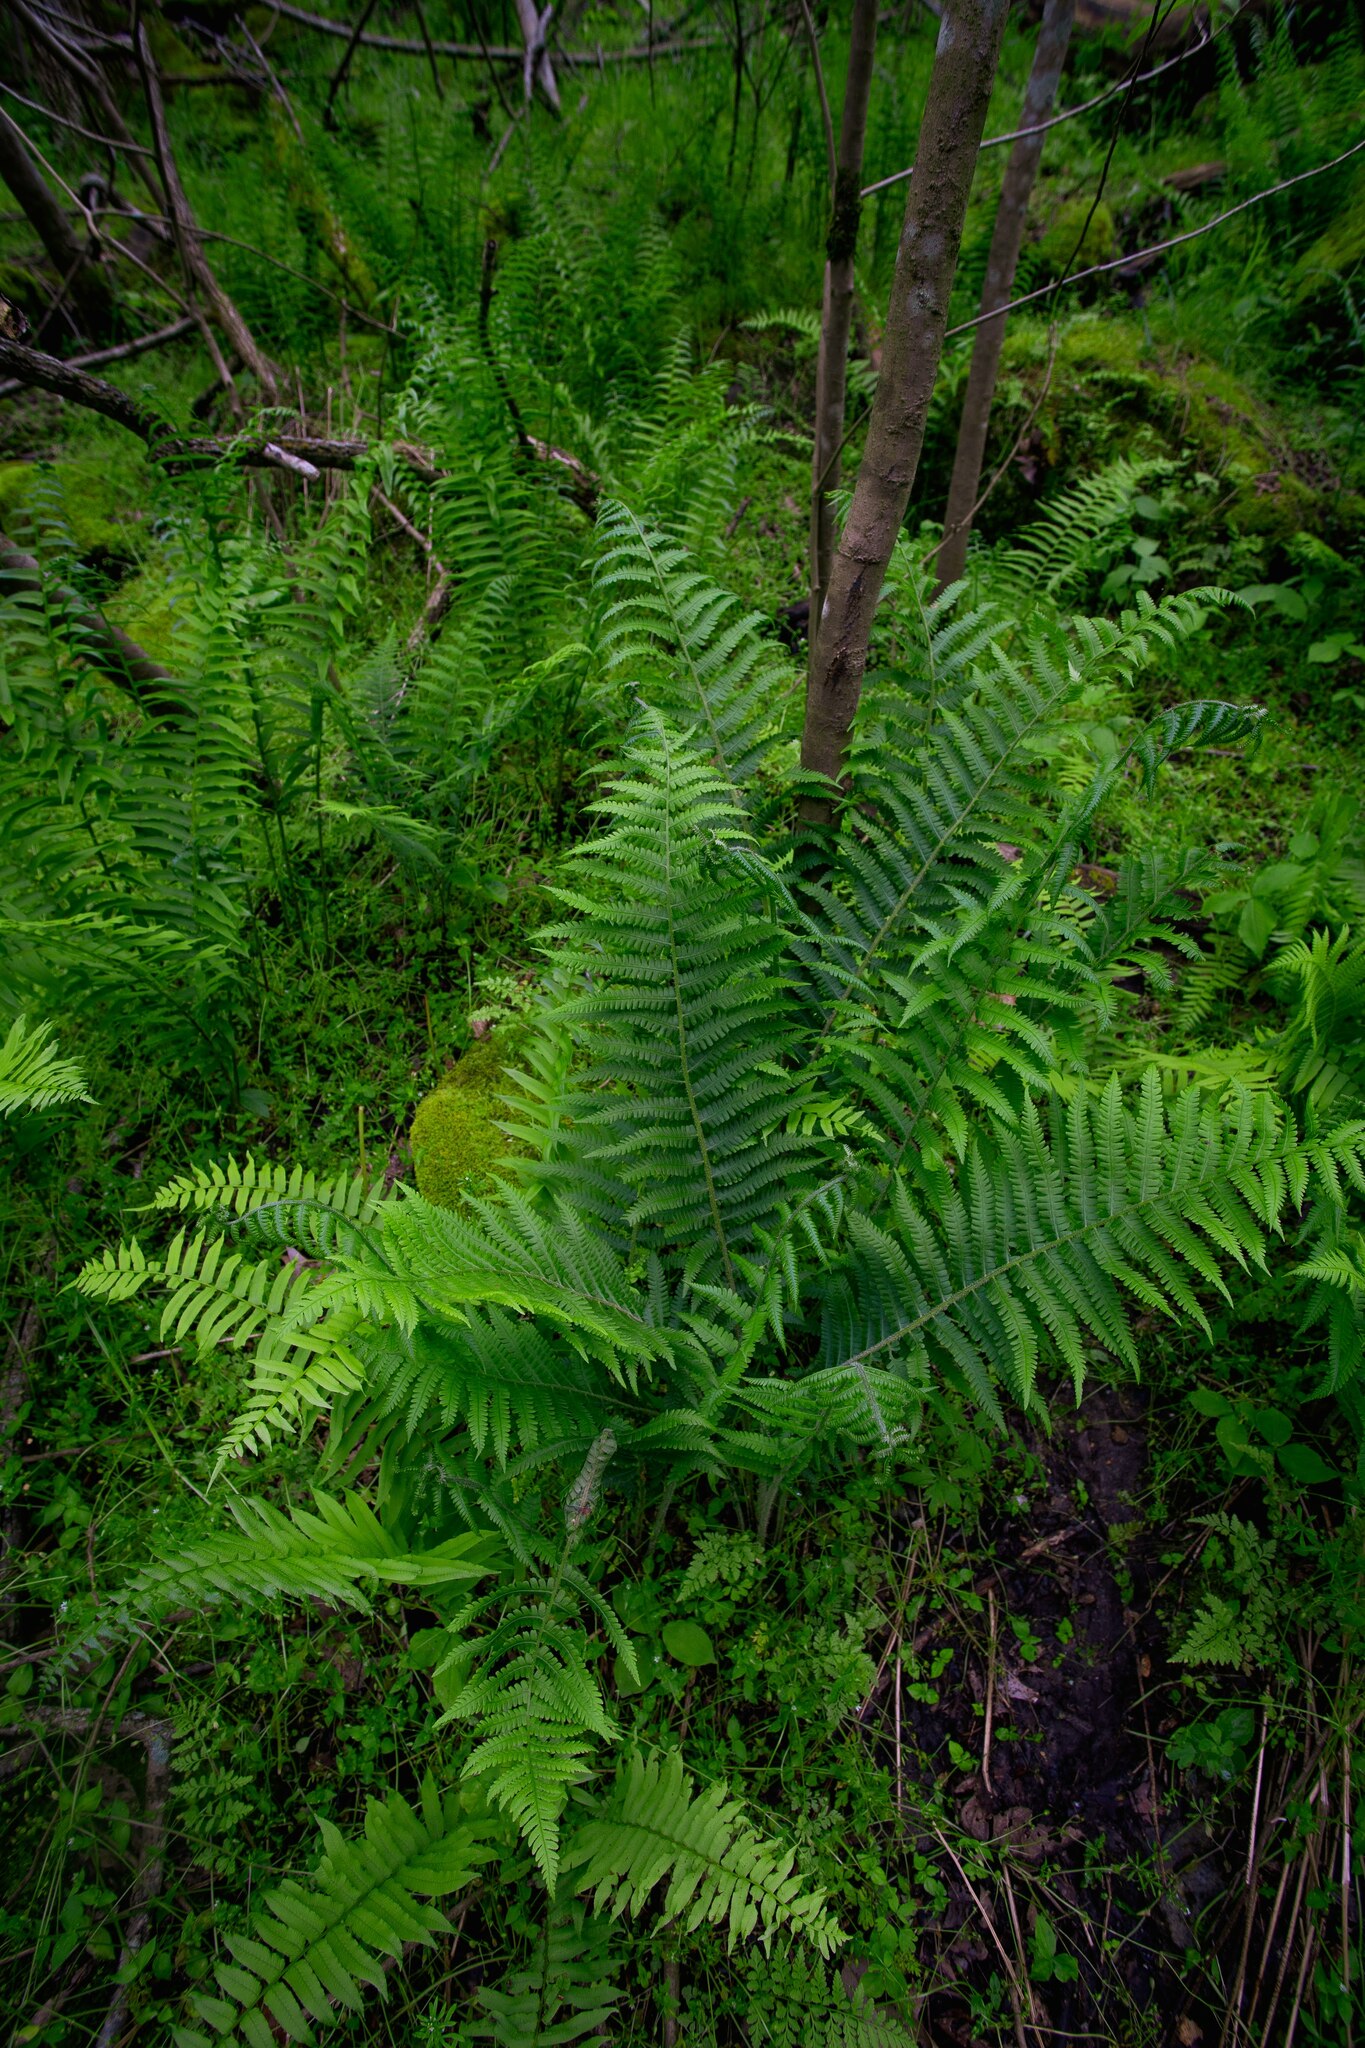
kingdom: Plantae
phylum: Tracheophyta
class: Polypodiopsida
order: Polypodiales
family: Athyriaceae
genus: Deparia
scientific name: Deparia acrostichoides
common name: Silver false spleenwort
